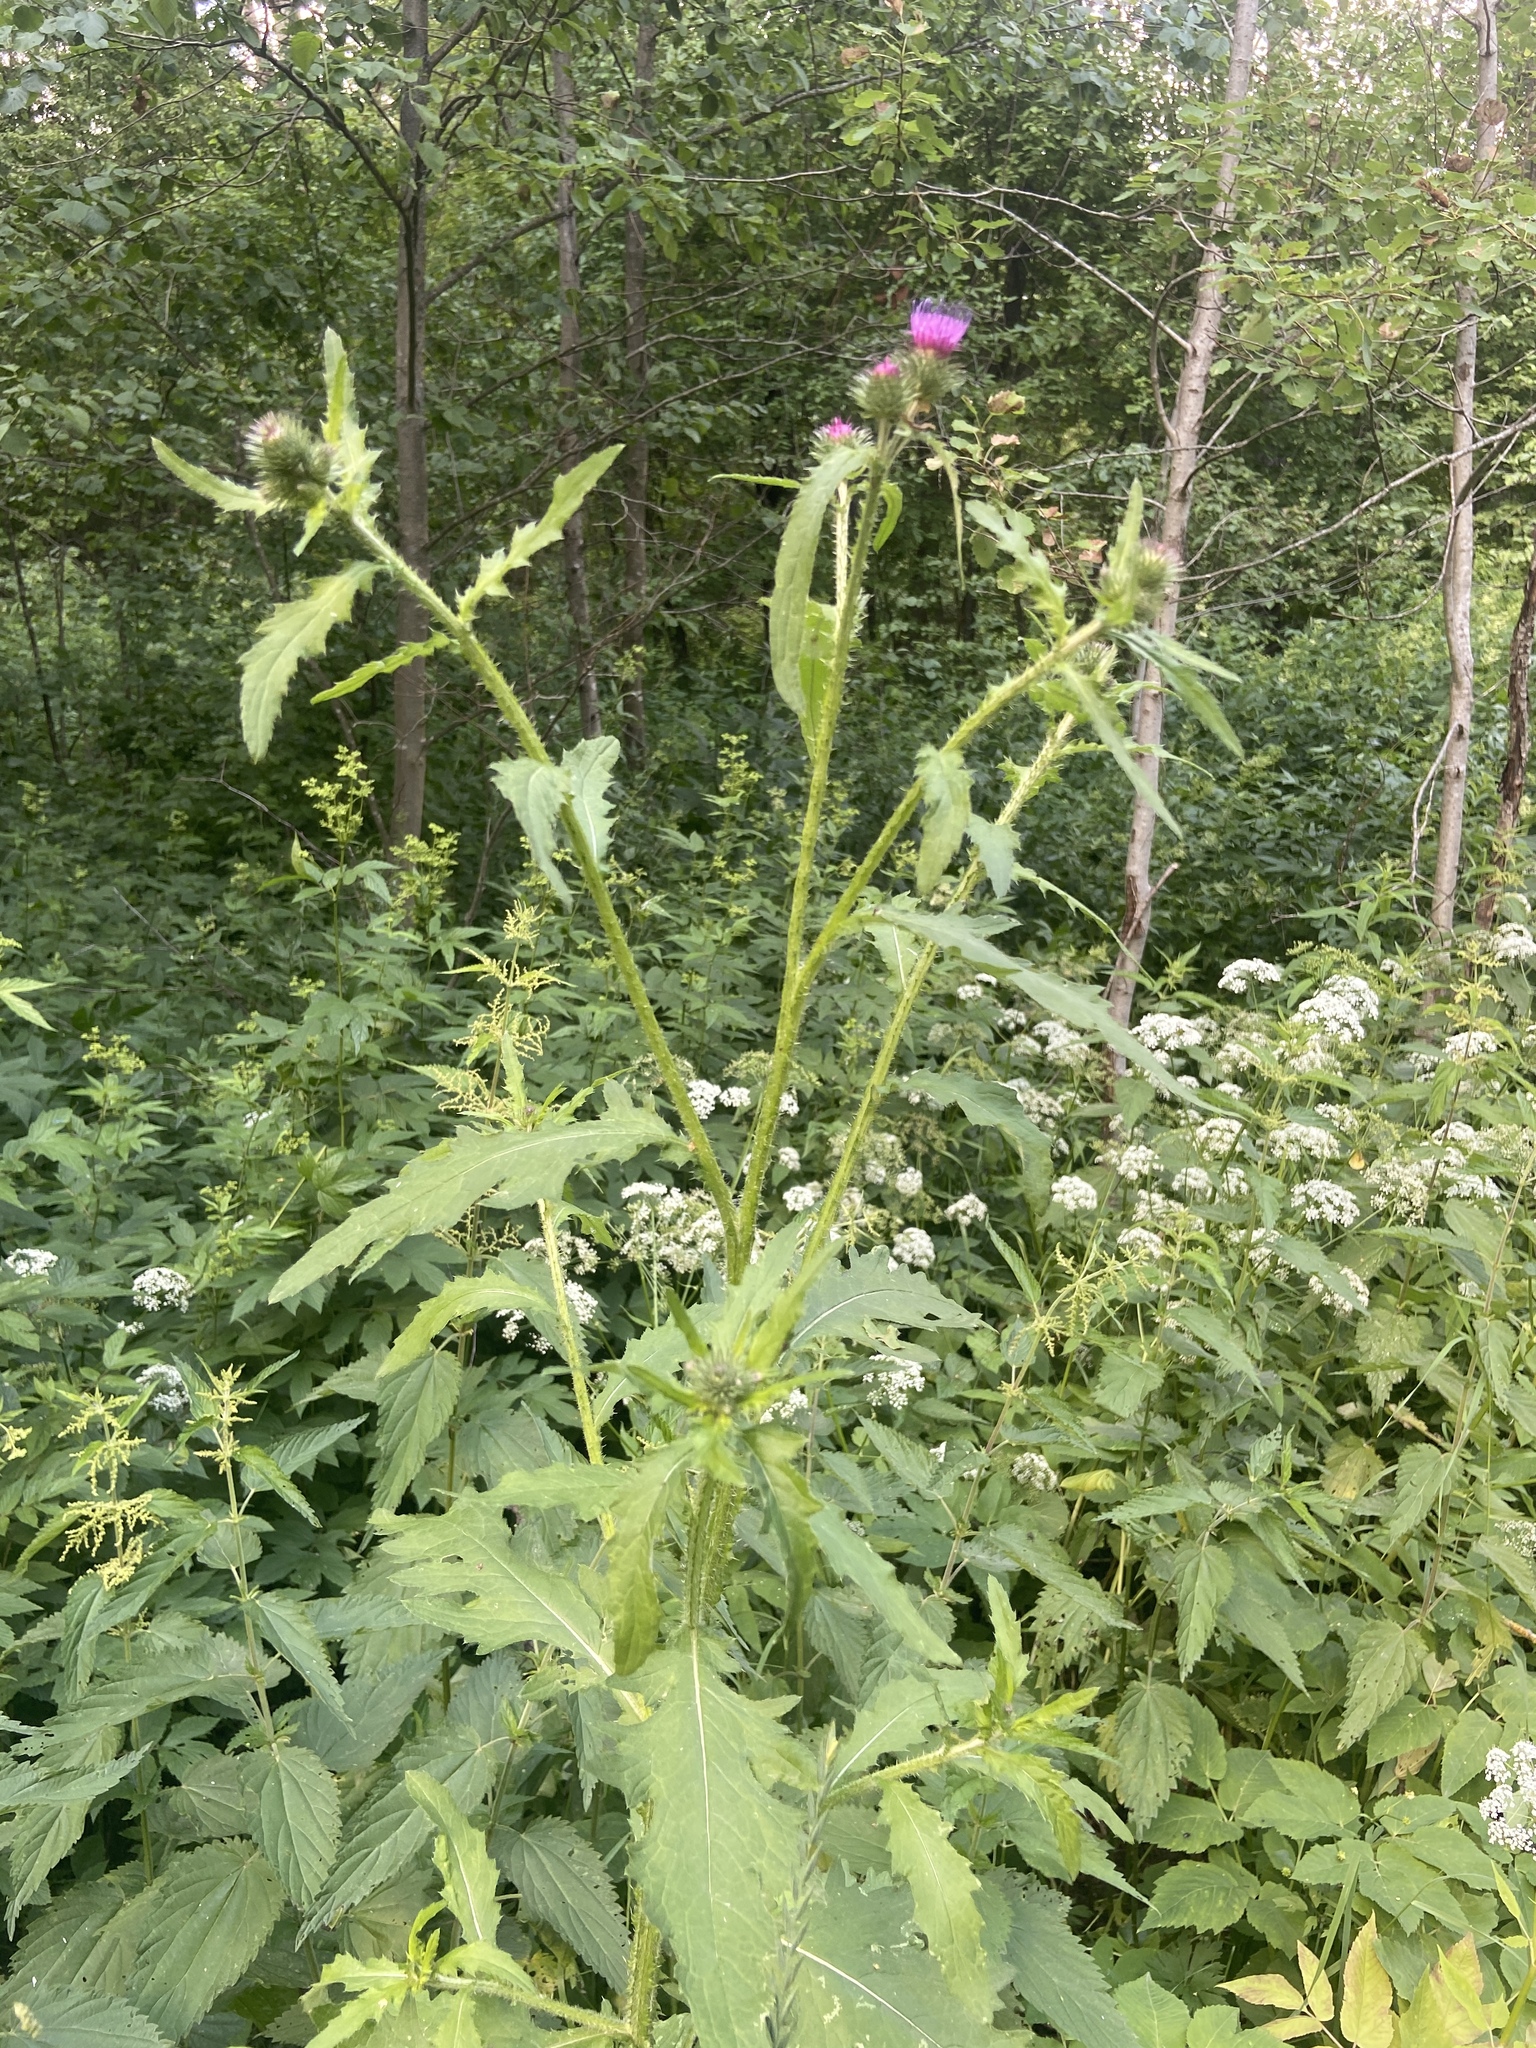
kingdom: Plantae
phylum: Tracheophyta
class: Magnoliopsida
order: Asterales
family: Asteraceae
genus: Carduus
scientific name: Carduus crispus
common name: Welted thistle
